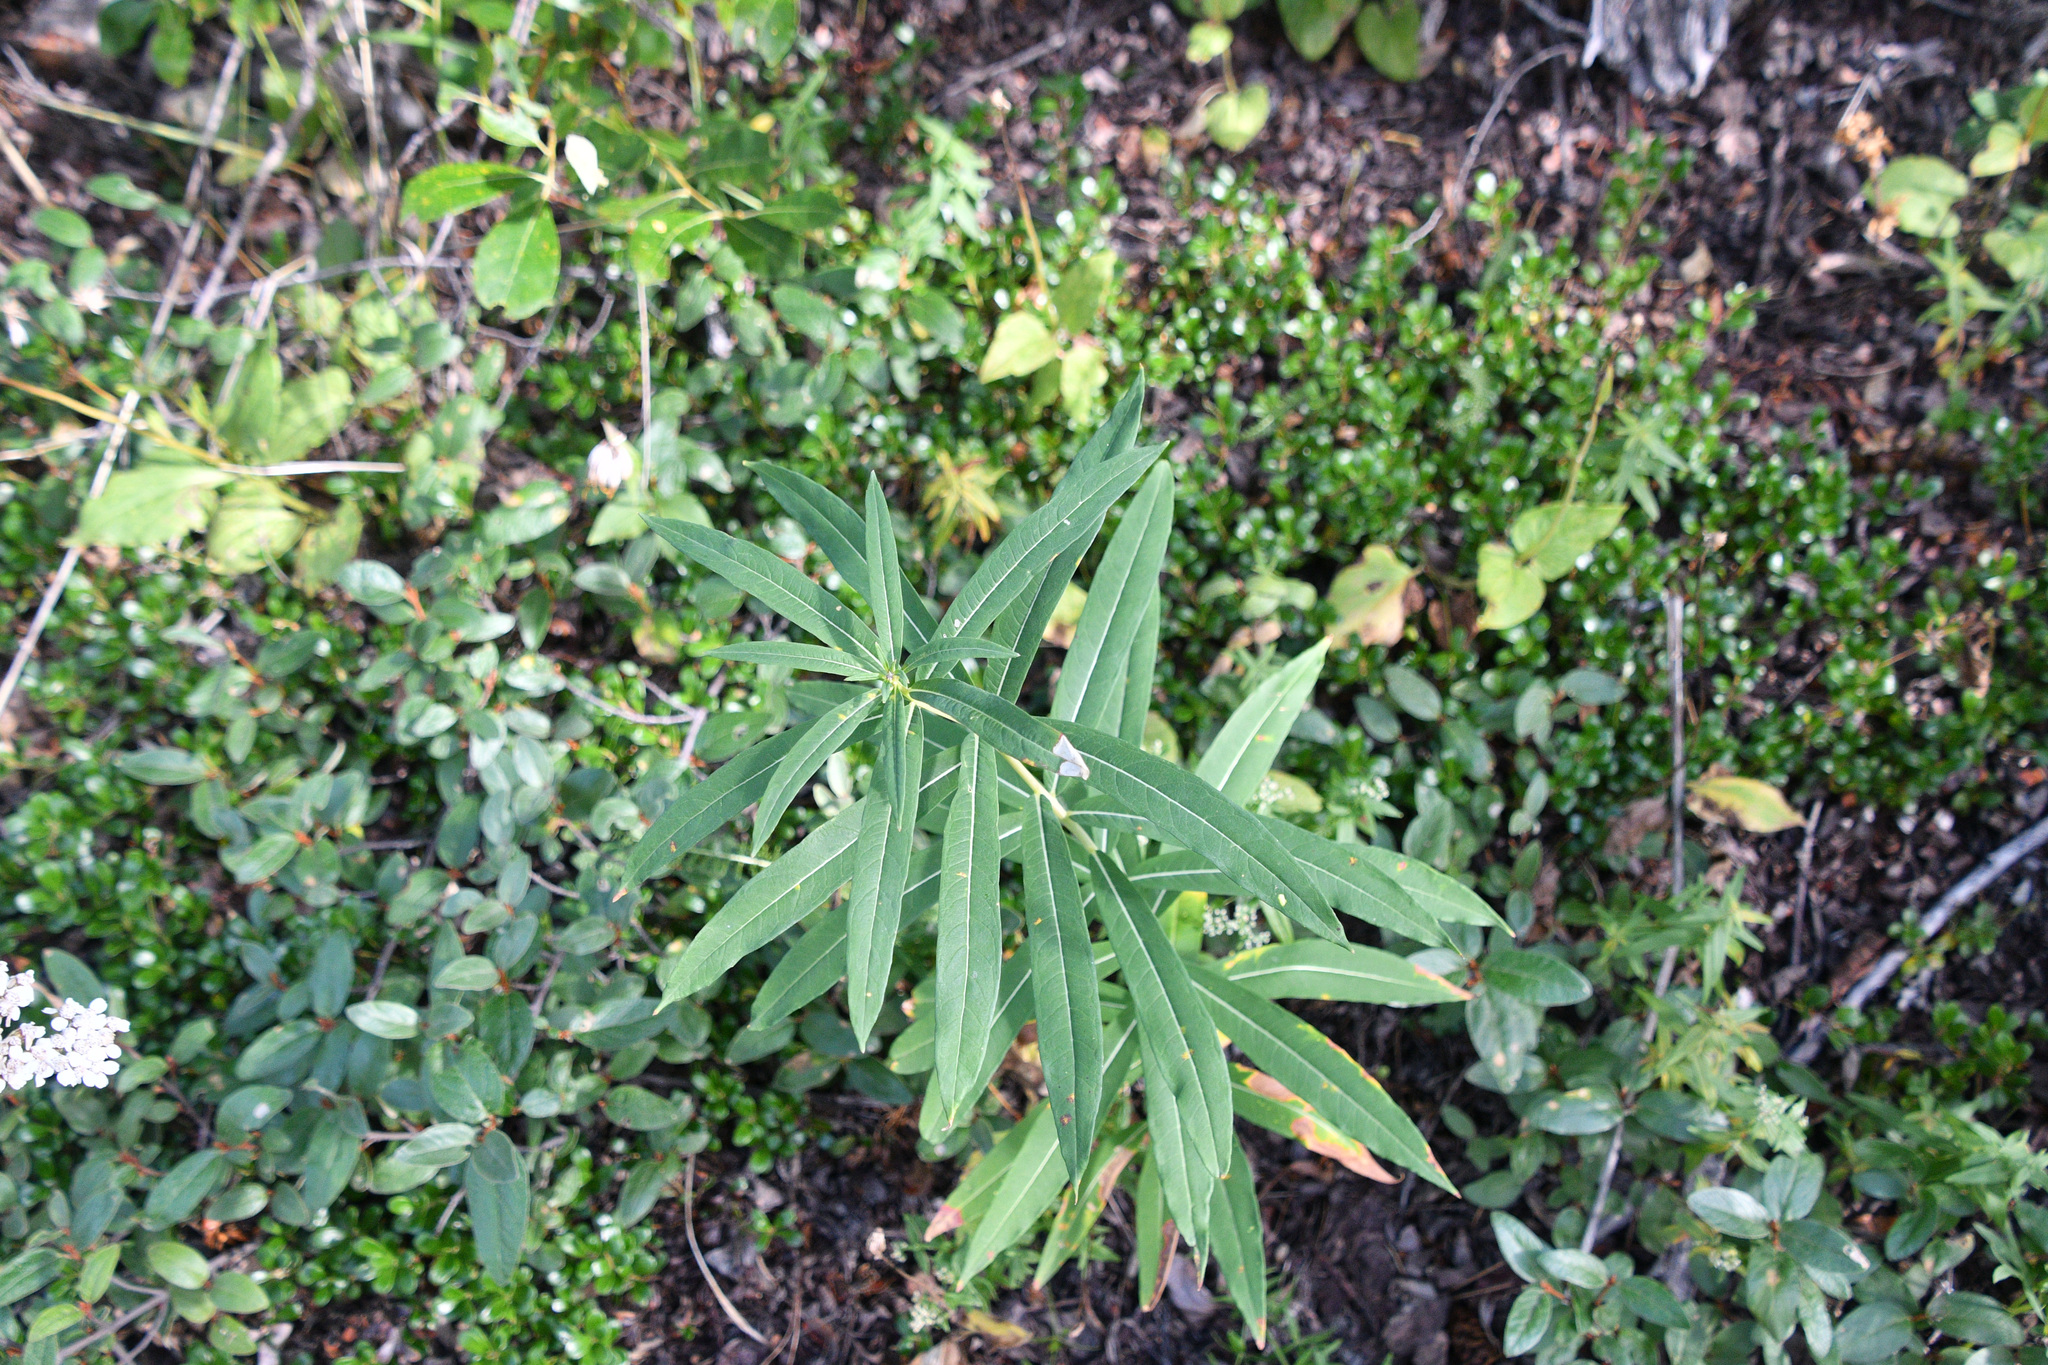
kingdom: Plantae
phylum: Tracheophyta
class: Magnoliopsida
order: Myrtales
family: Onagraceae
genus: Chamaenerion
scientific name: Chamaenerion angustifolium
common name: Fireweed
